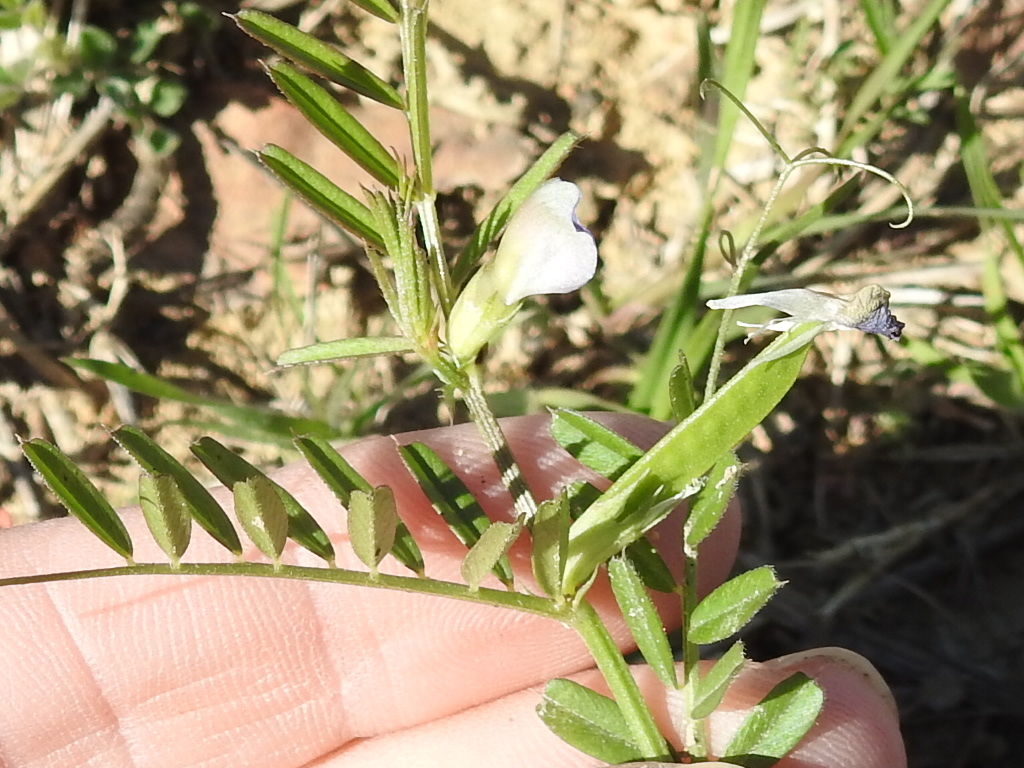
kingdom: Plantae
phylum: Tracheophyta
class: Magnoliopsida
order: Fabales
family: Fabaceae
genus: Vicia
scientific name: Vicia sativa
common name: Garden vetch
